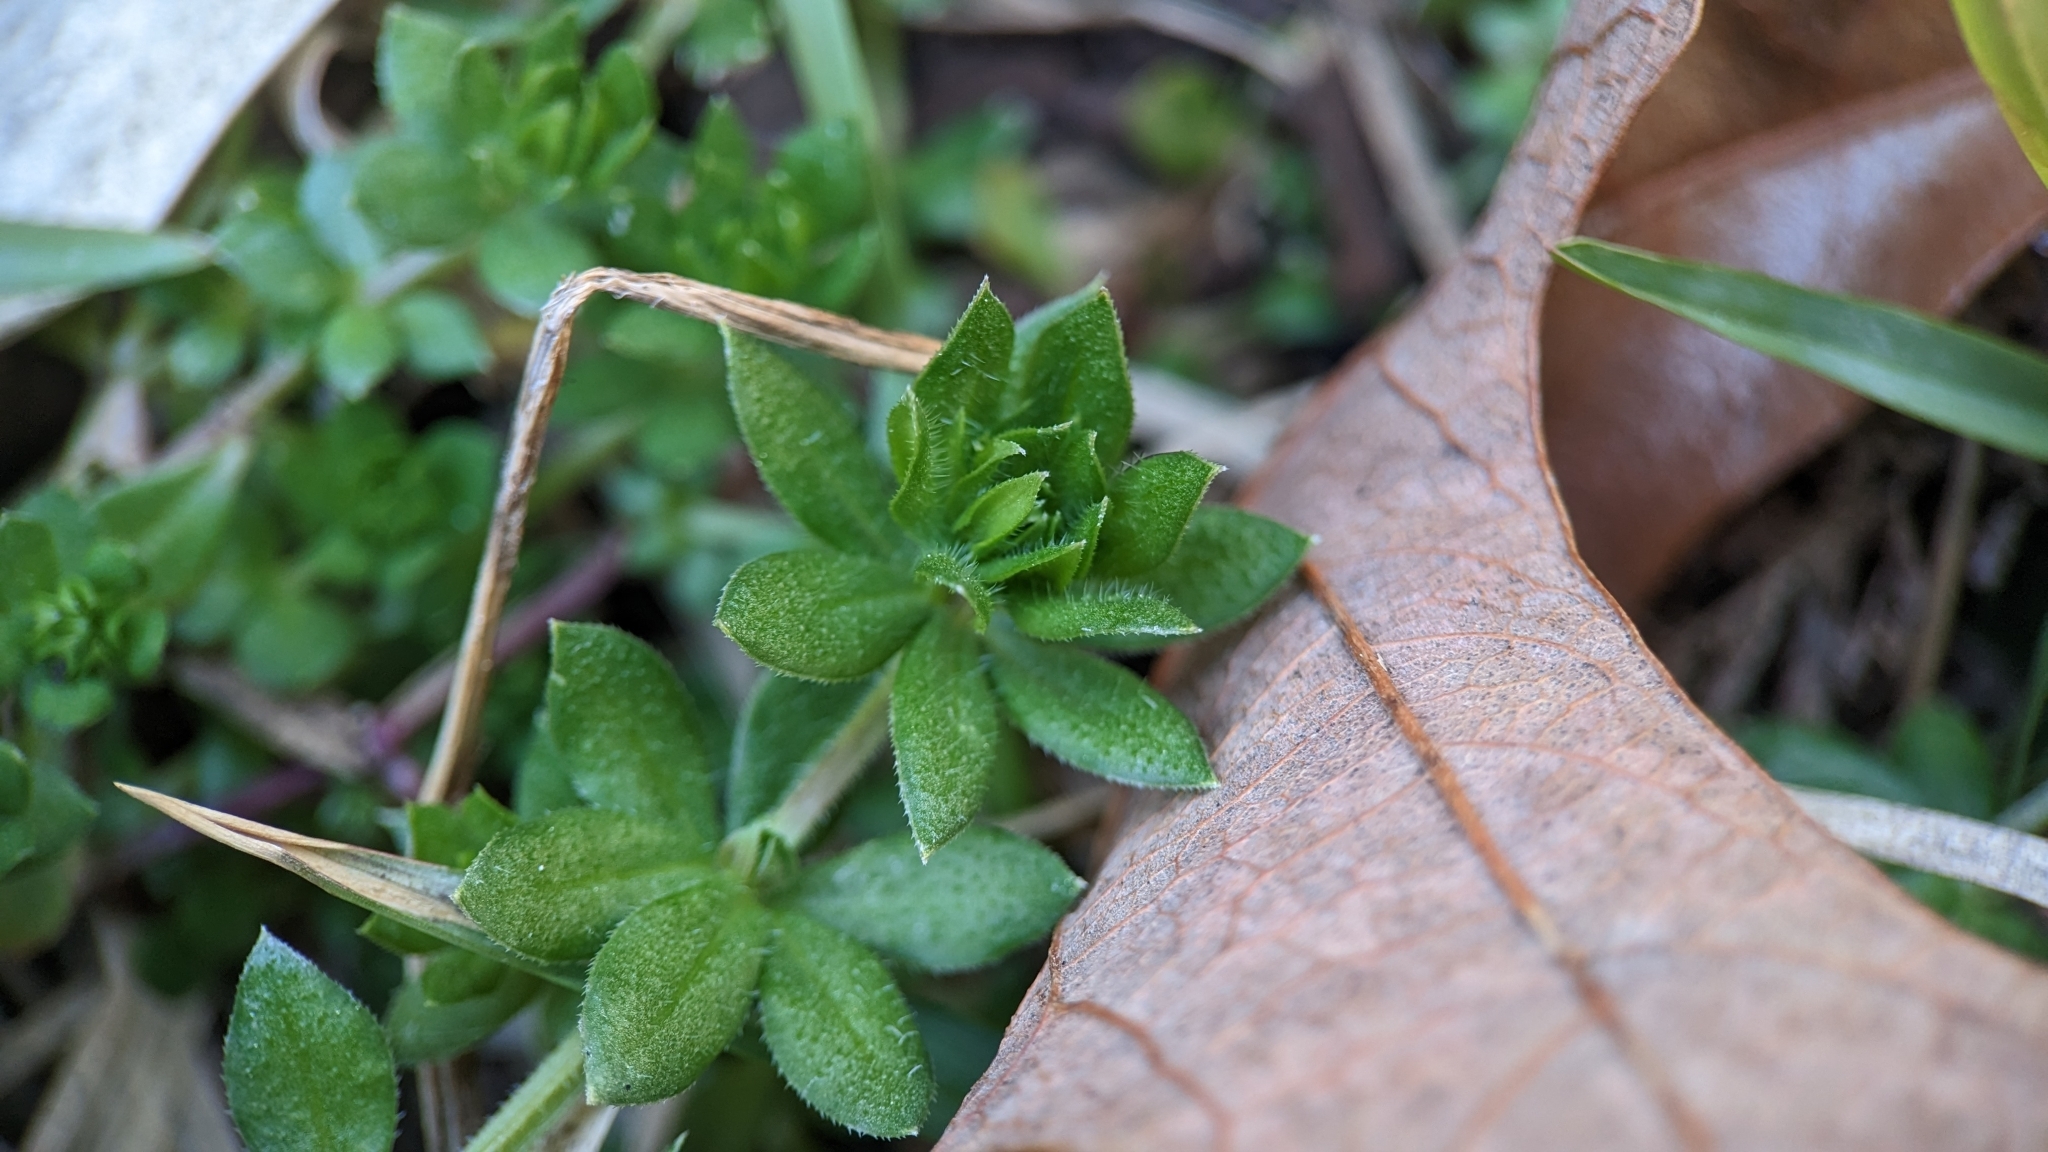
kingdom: Plantae
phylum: Tracheophyta
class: Magnoliopsida
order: Gentianales
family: Rubiaceae
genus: Sherardia
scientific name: Sherardia arvensis
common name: Field madder
